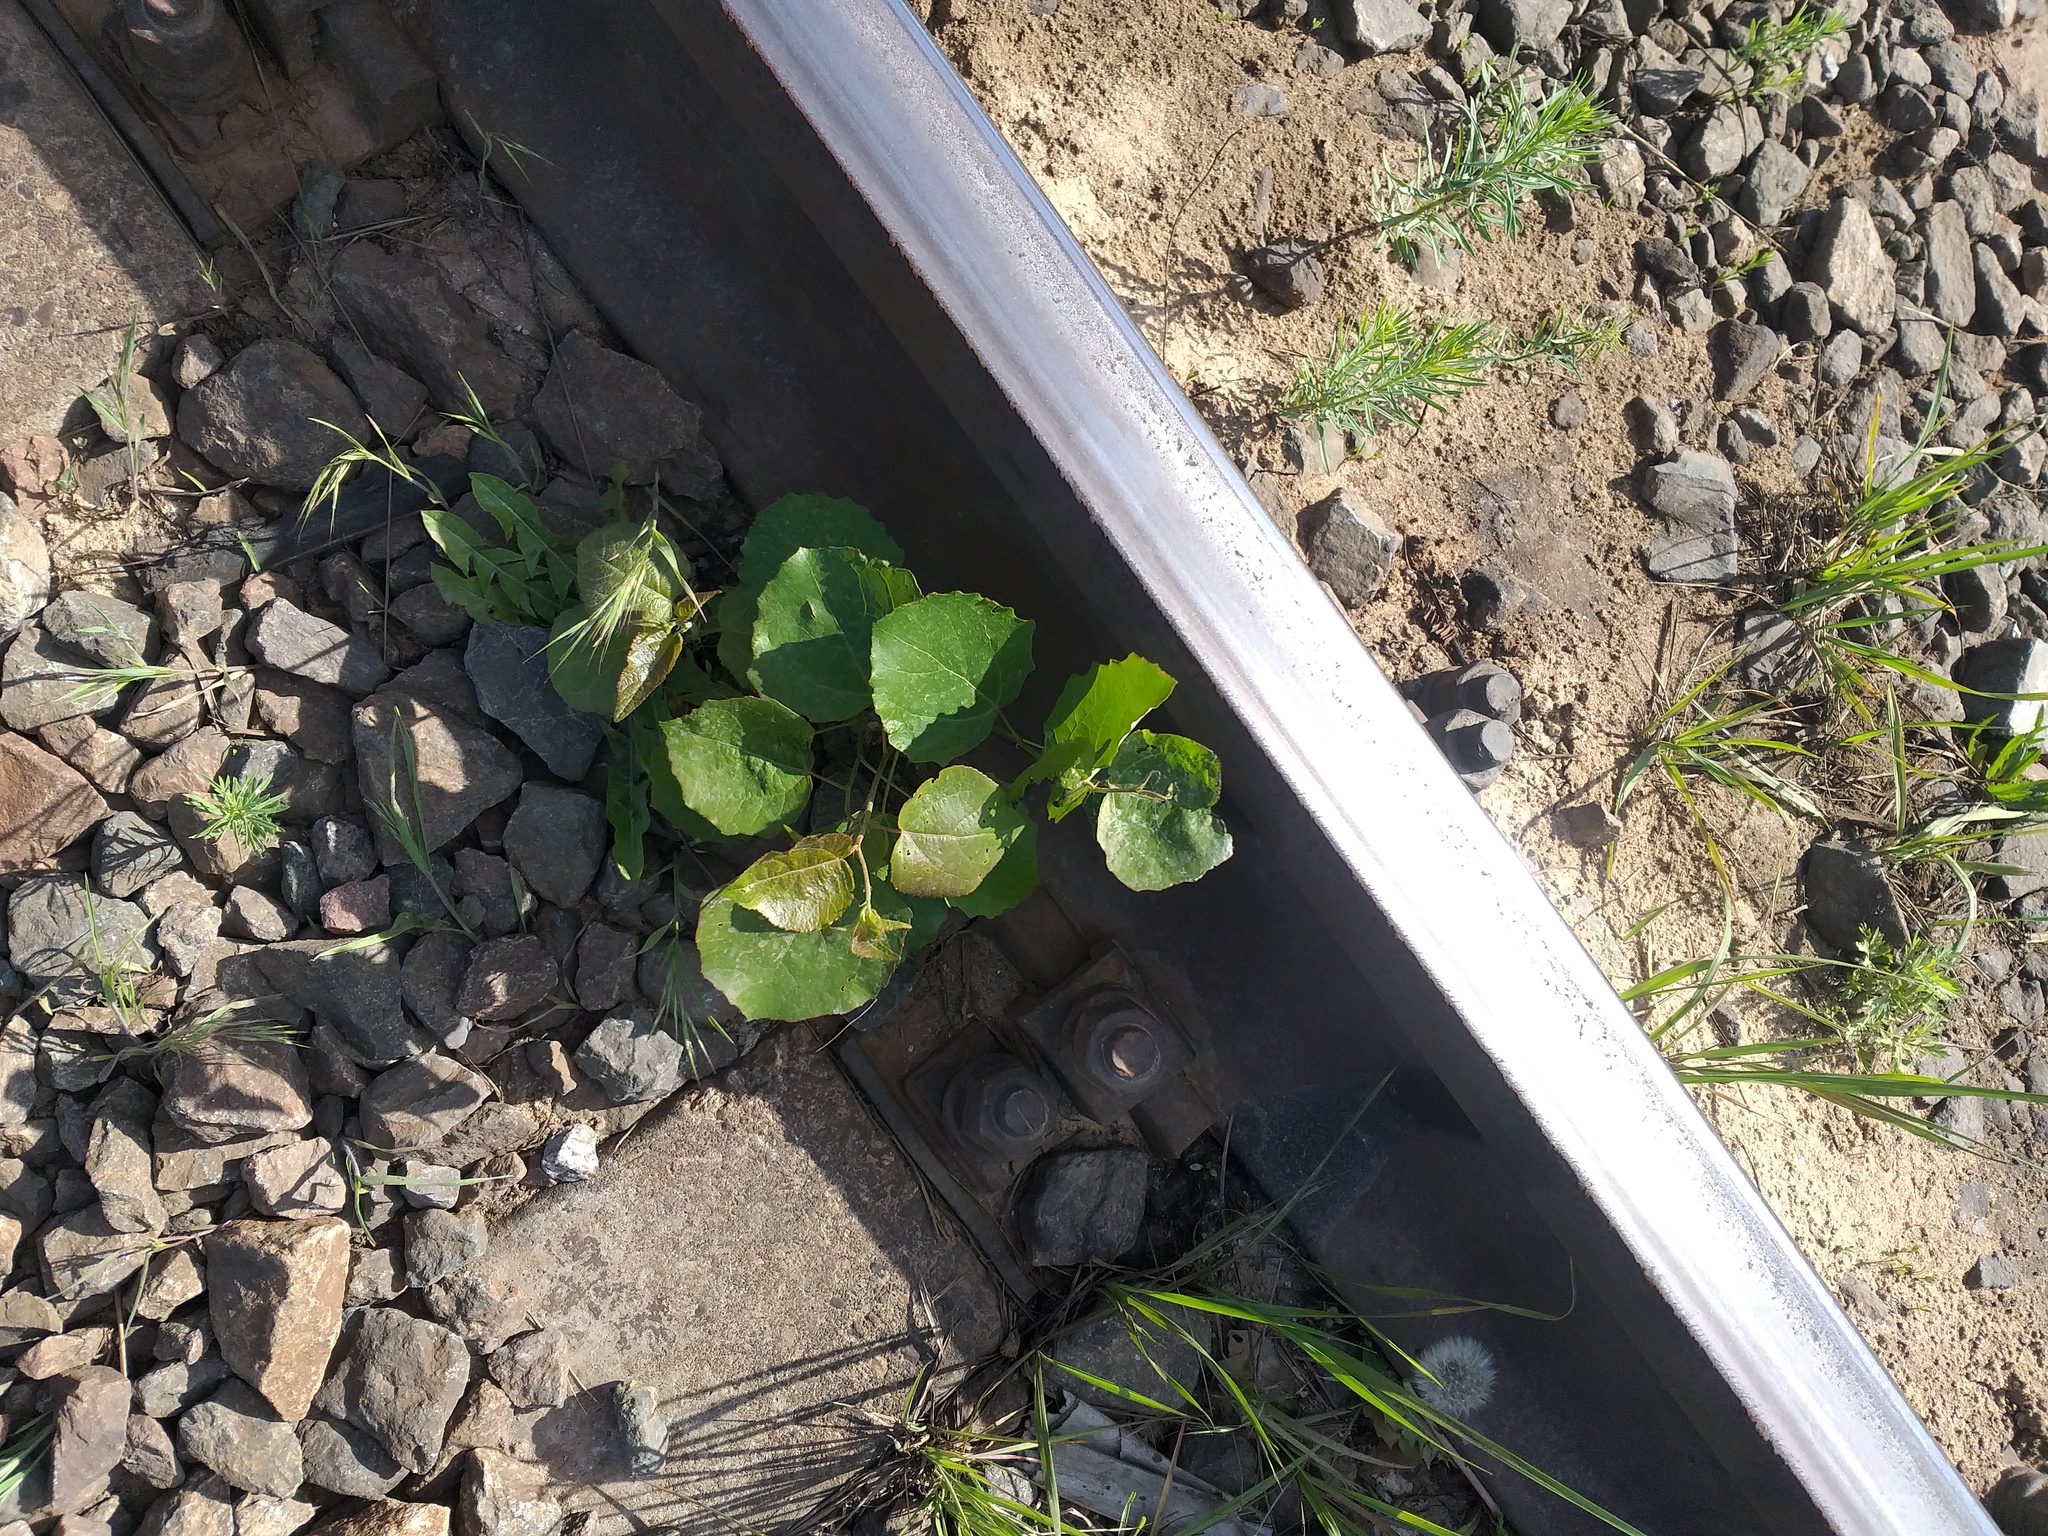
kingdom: Plantae
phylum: Tracheophyta
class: Magnoliopsida
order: Malpighiales
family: Salicaceae
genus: Populus
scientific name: Populus tremula
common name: European aspen
